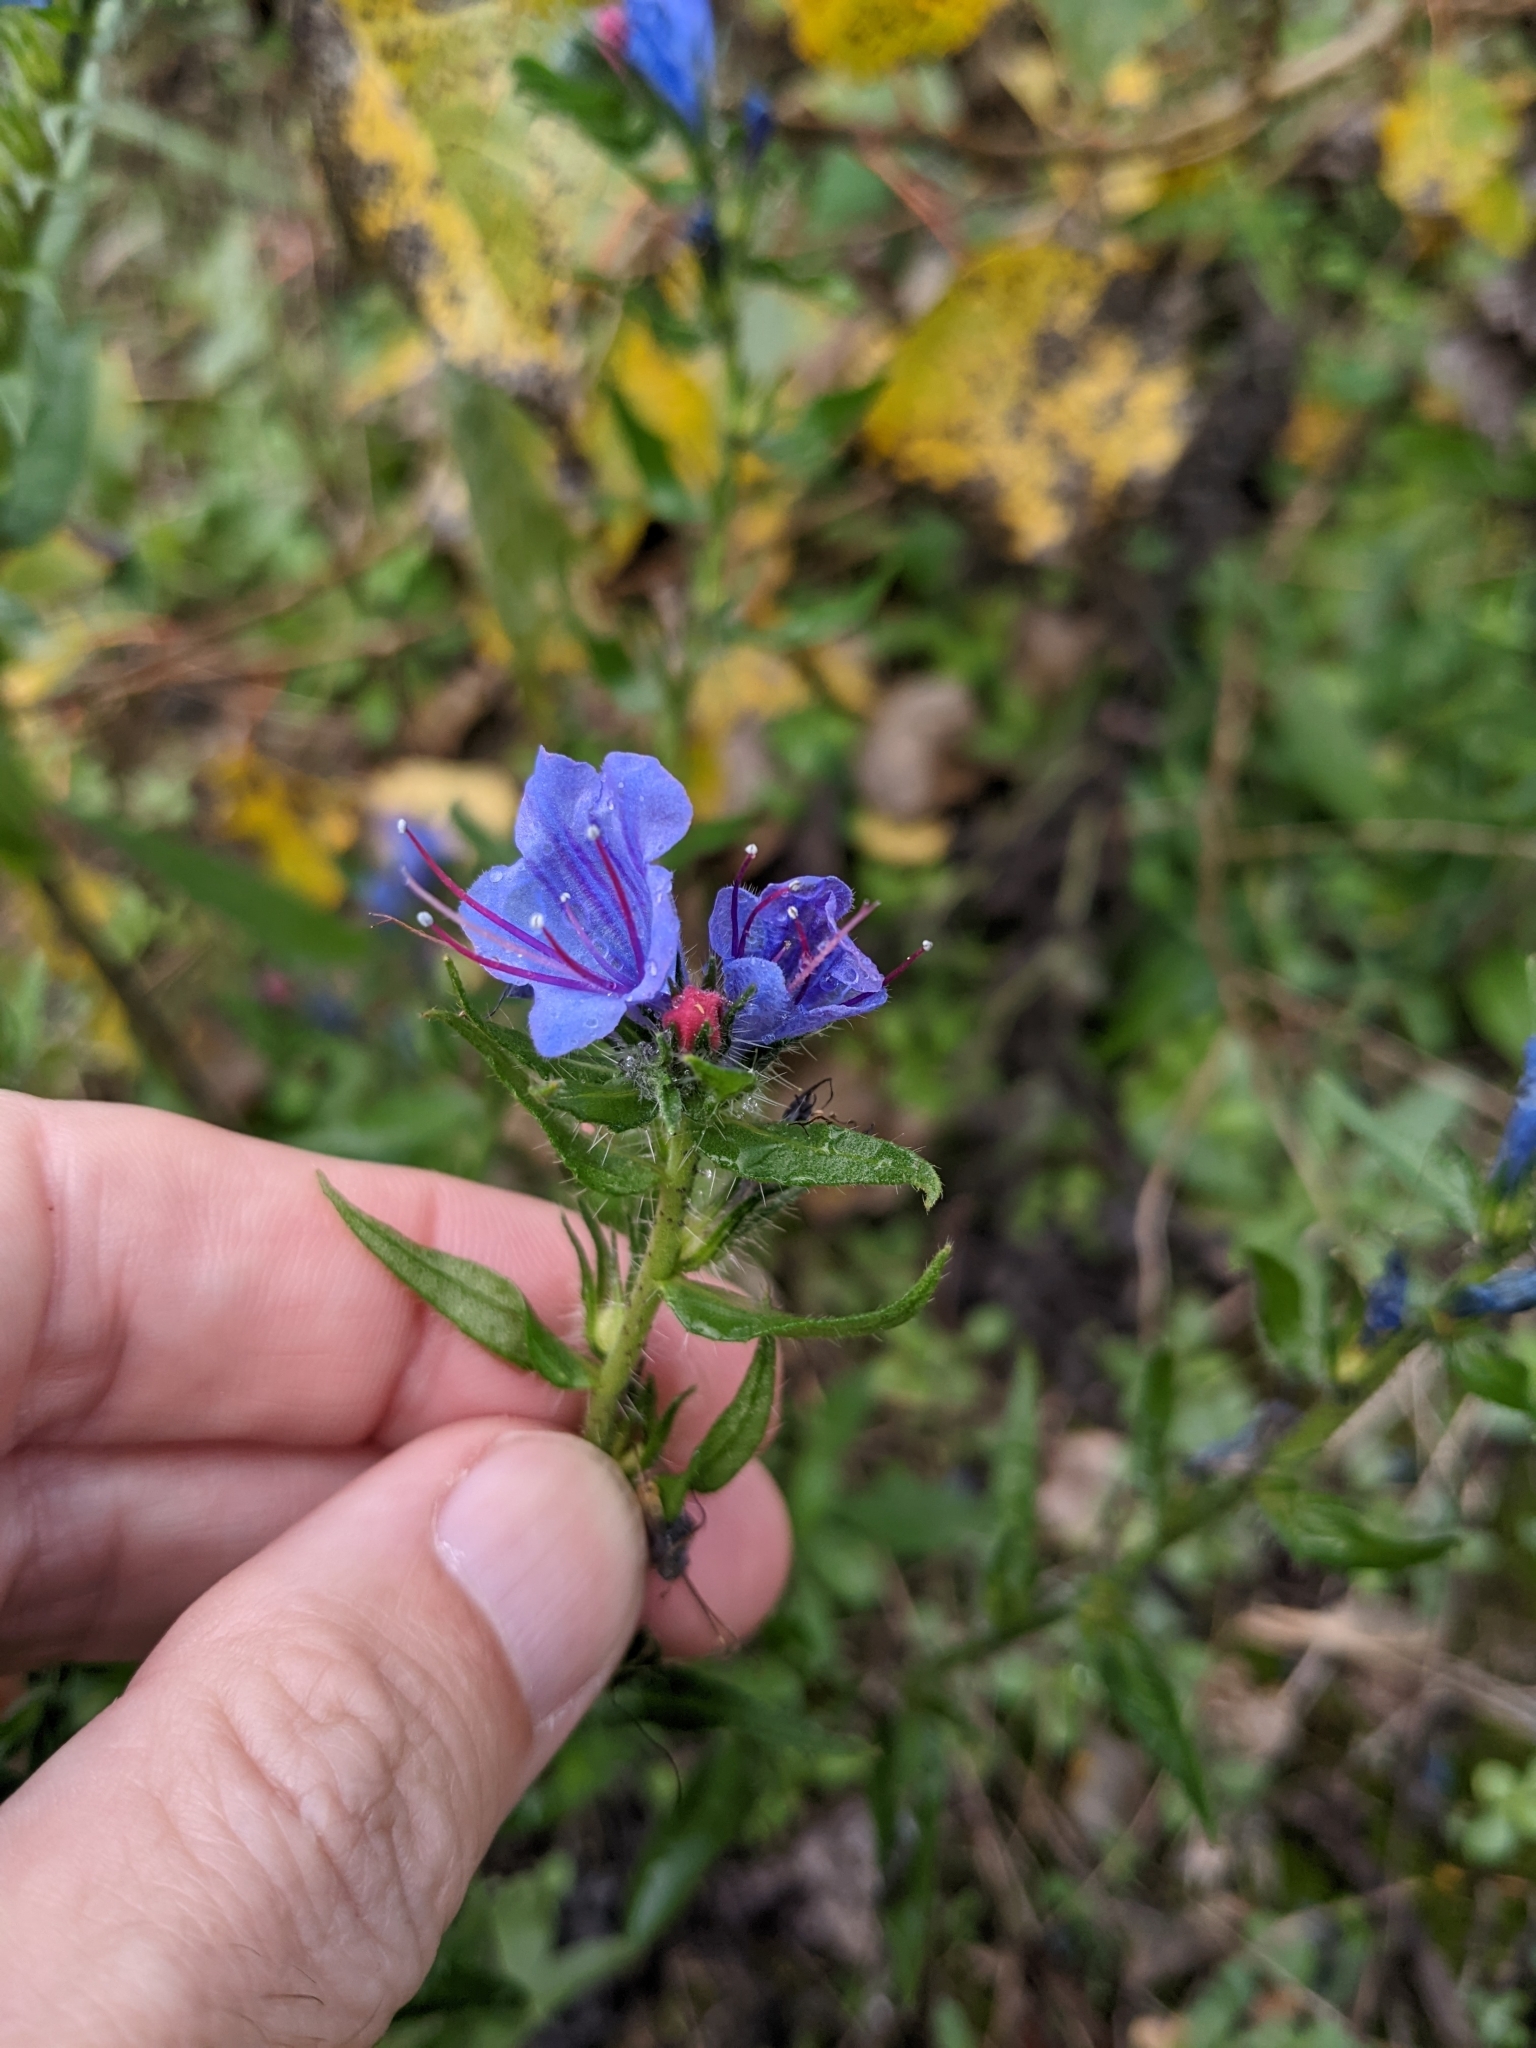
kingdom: Plantae
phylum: Tracheophyta
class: Magnoliopsida
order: Boraginales
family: Boraginaceae
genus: Echium
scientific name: Echium vulgare
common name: Common viper's bugloss
